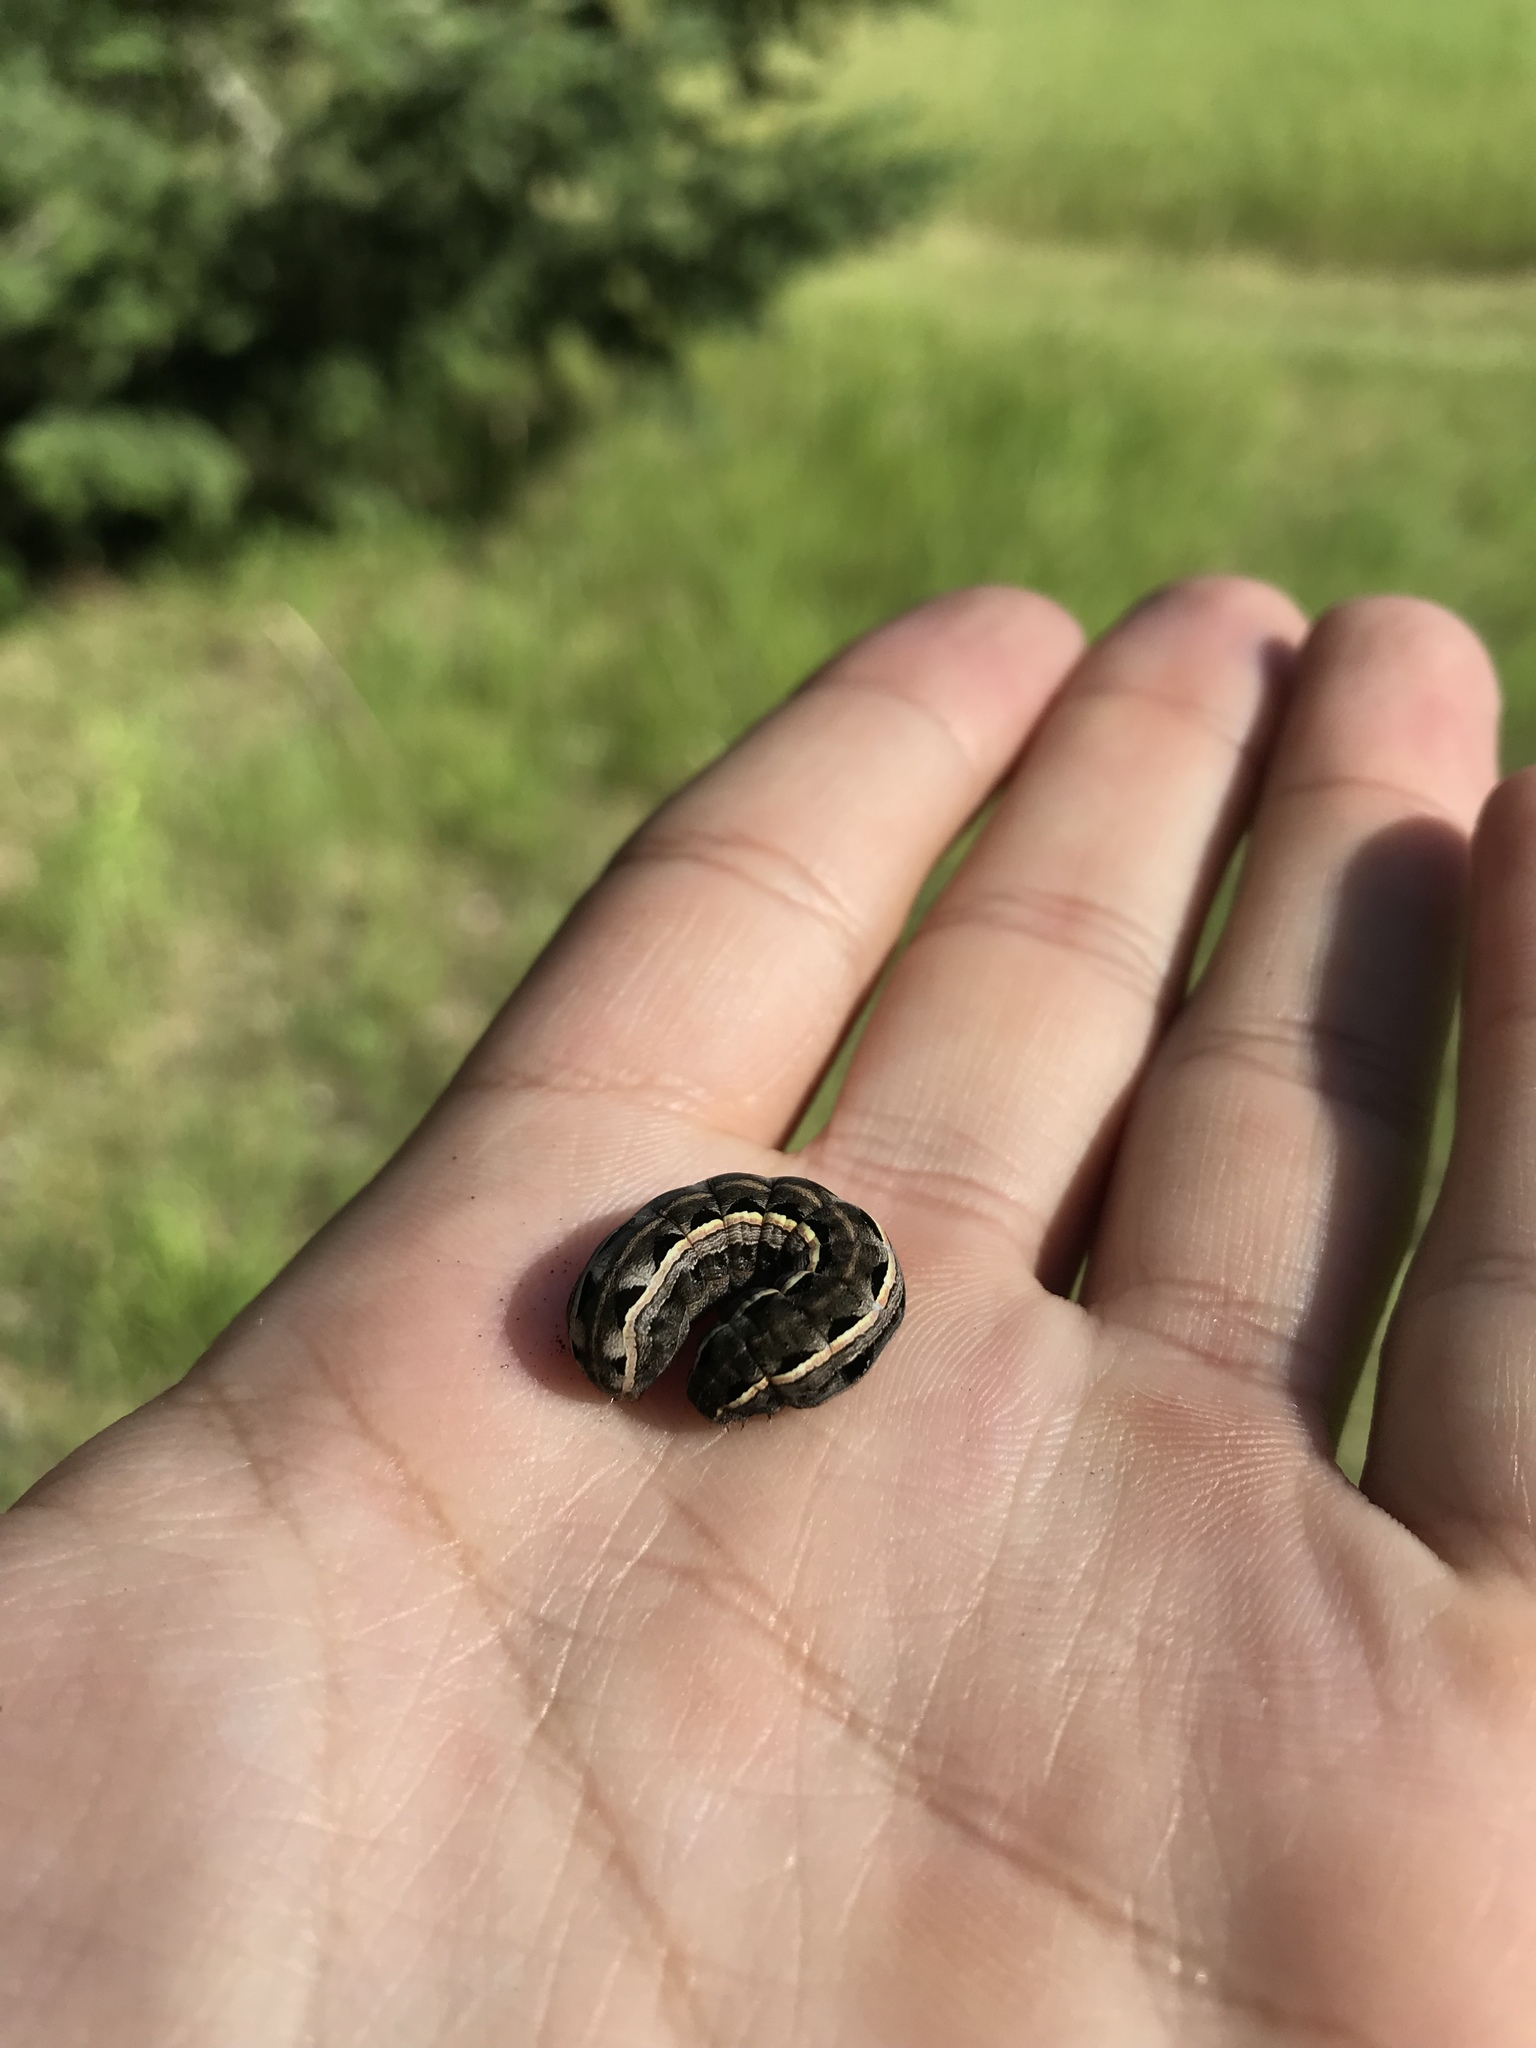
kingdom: Animalia
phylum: Arthropoda
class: Insecta
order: Lepidoptera
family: Noctuidae
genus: Spodoptera
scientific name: Spodoptera ornithogalli
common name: Yellow-striped armyworm
